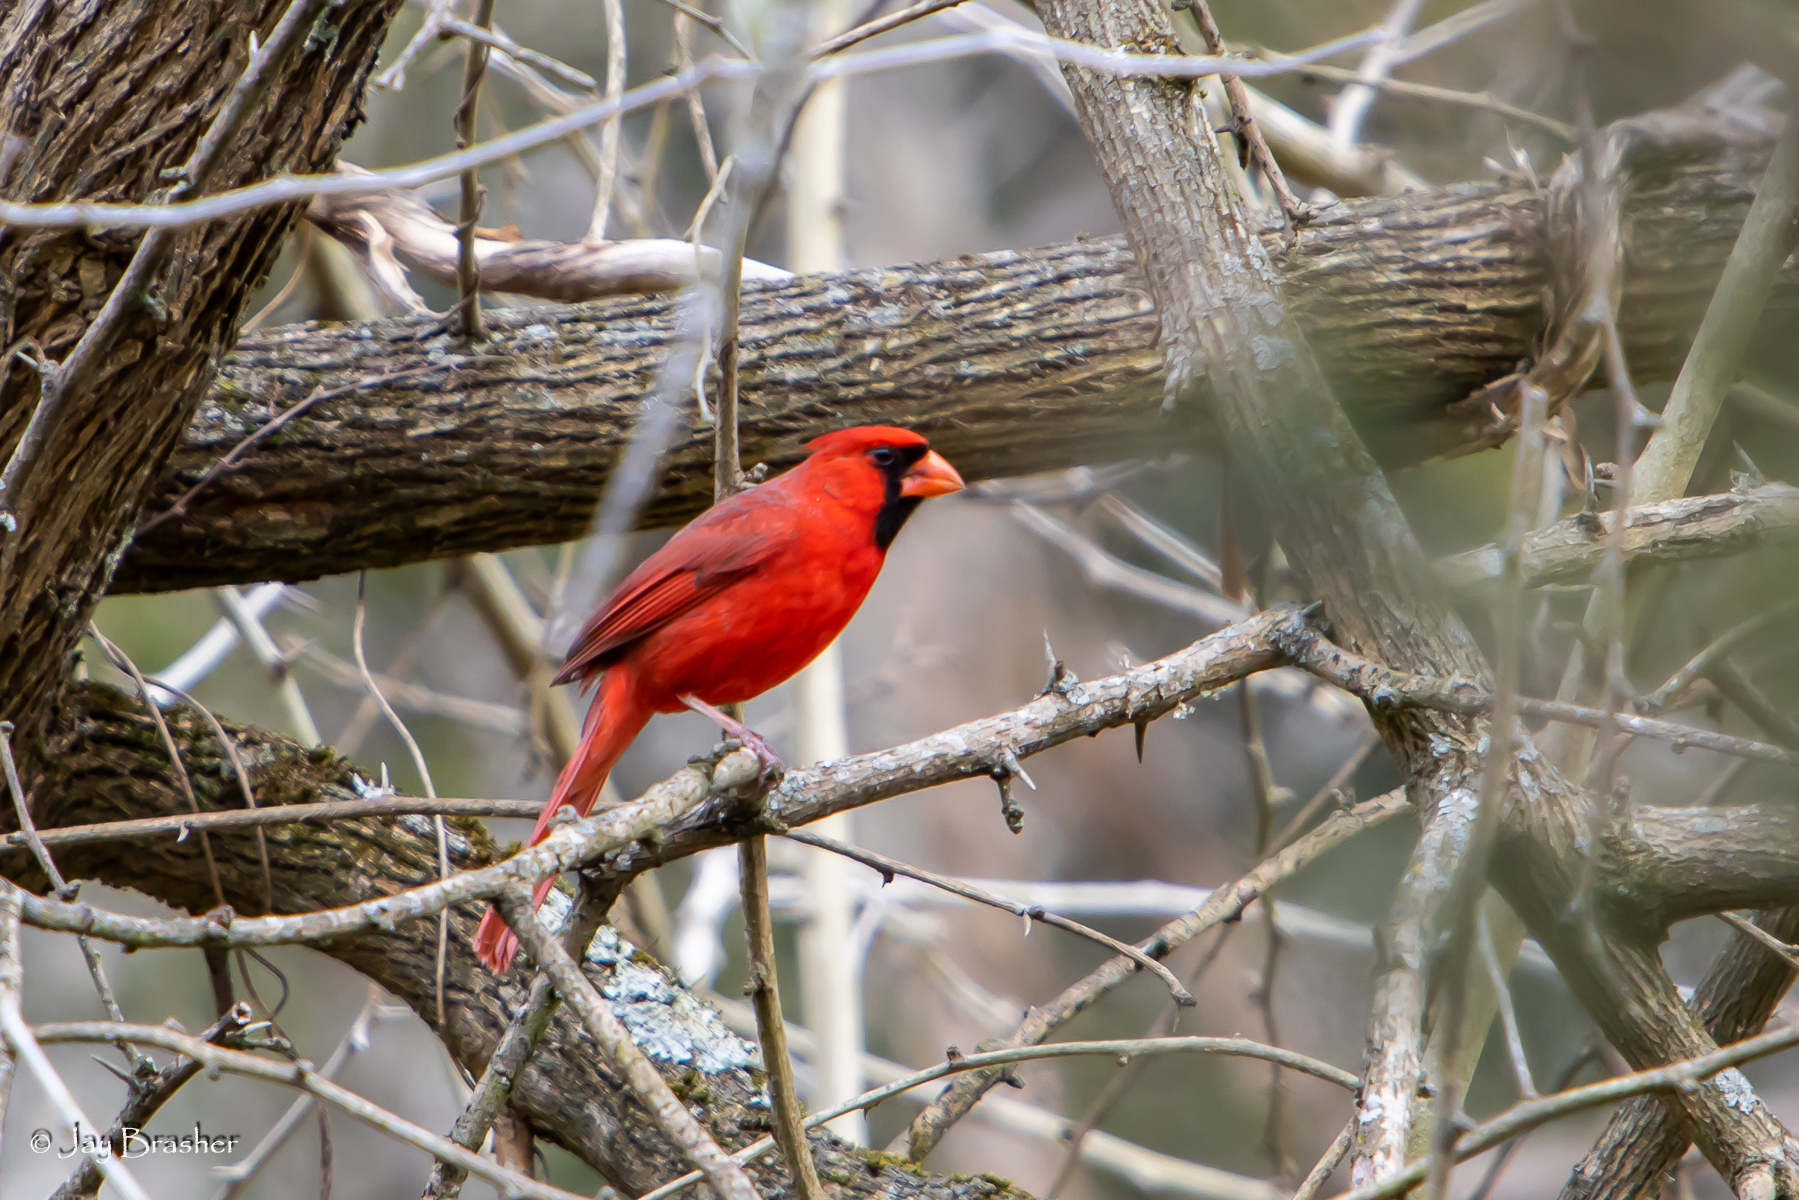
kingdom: Animalia
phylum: Chordata
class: Aves
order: Passeriformes
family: Cardinalidae
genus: Cardinalis
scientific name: Cardinalis cardinalis
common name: Northern cardinal
